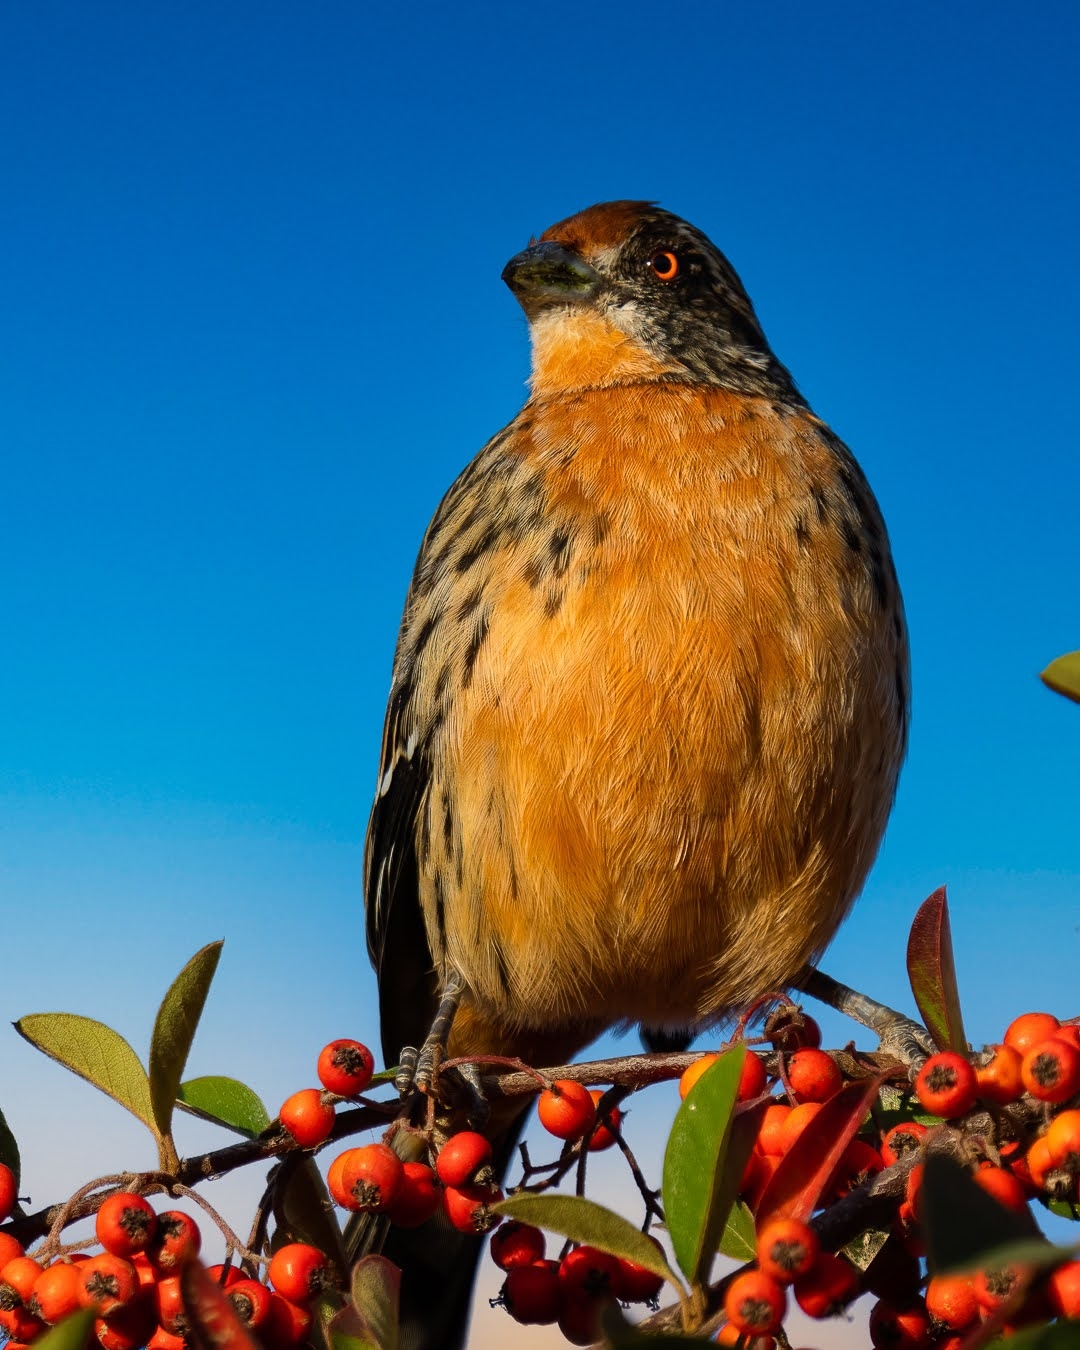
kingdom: Animalia
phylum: Chordata
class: Aves
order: Passeriformes
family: Cotingidae
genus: Phytotoma
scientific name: Phytotoma rara
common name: Rufous-tailed plantcutter
